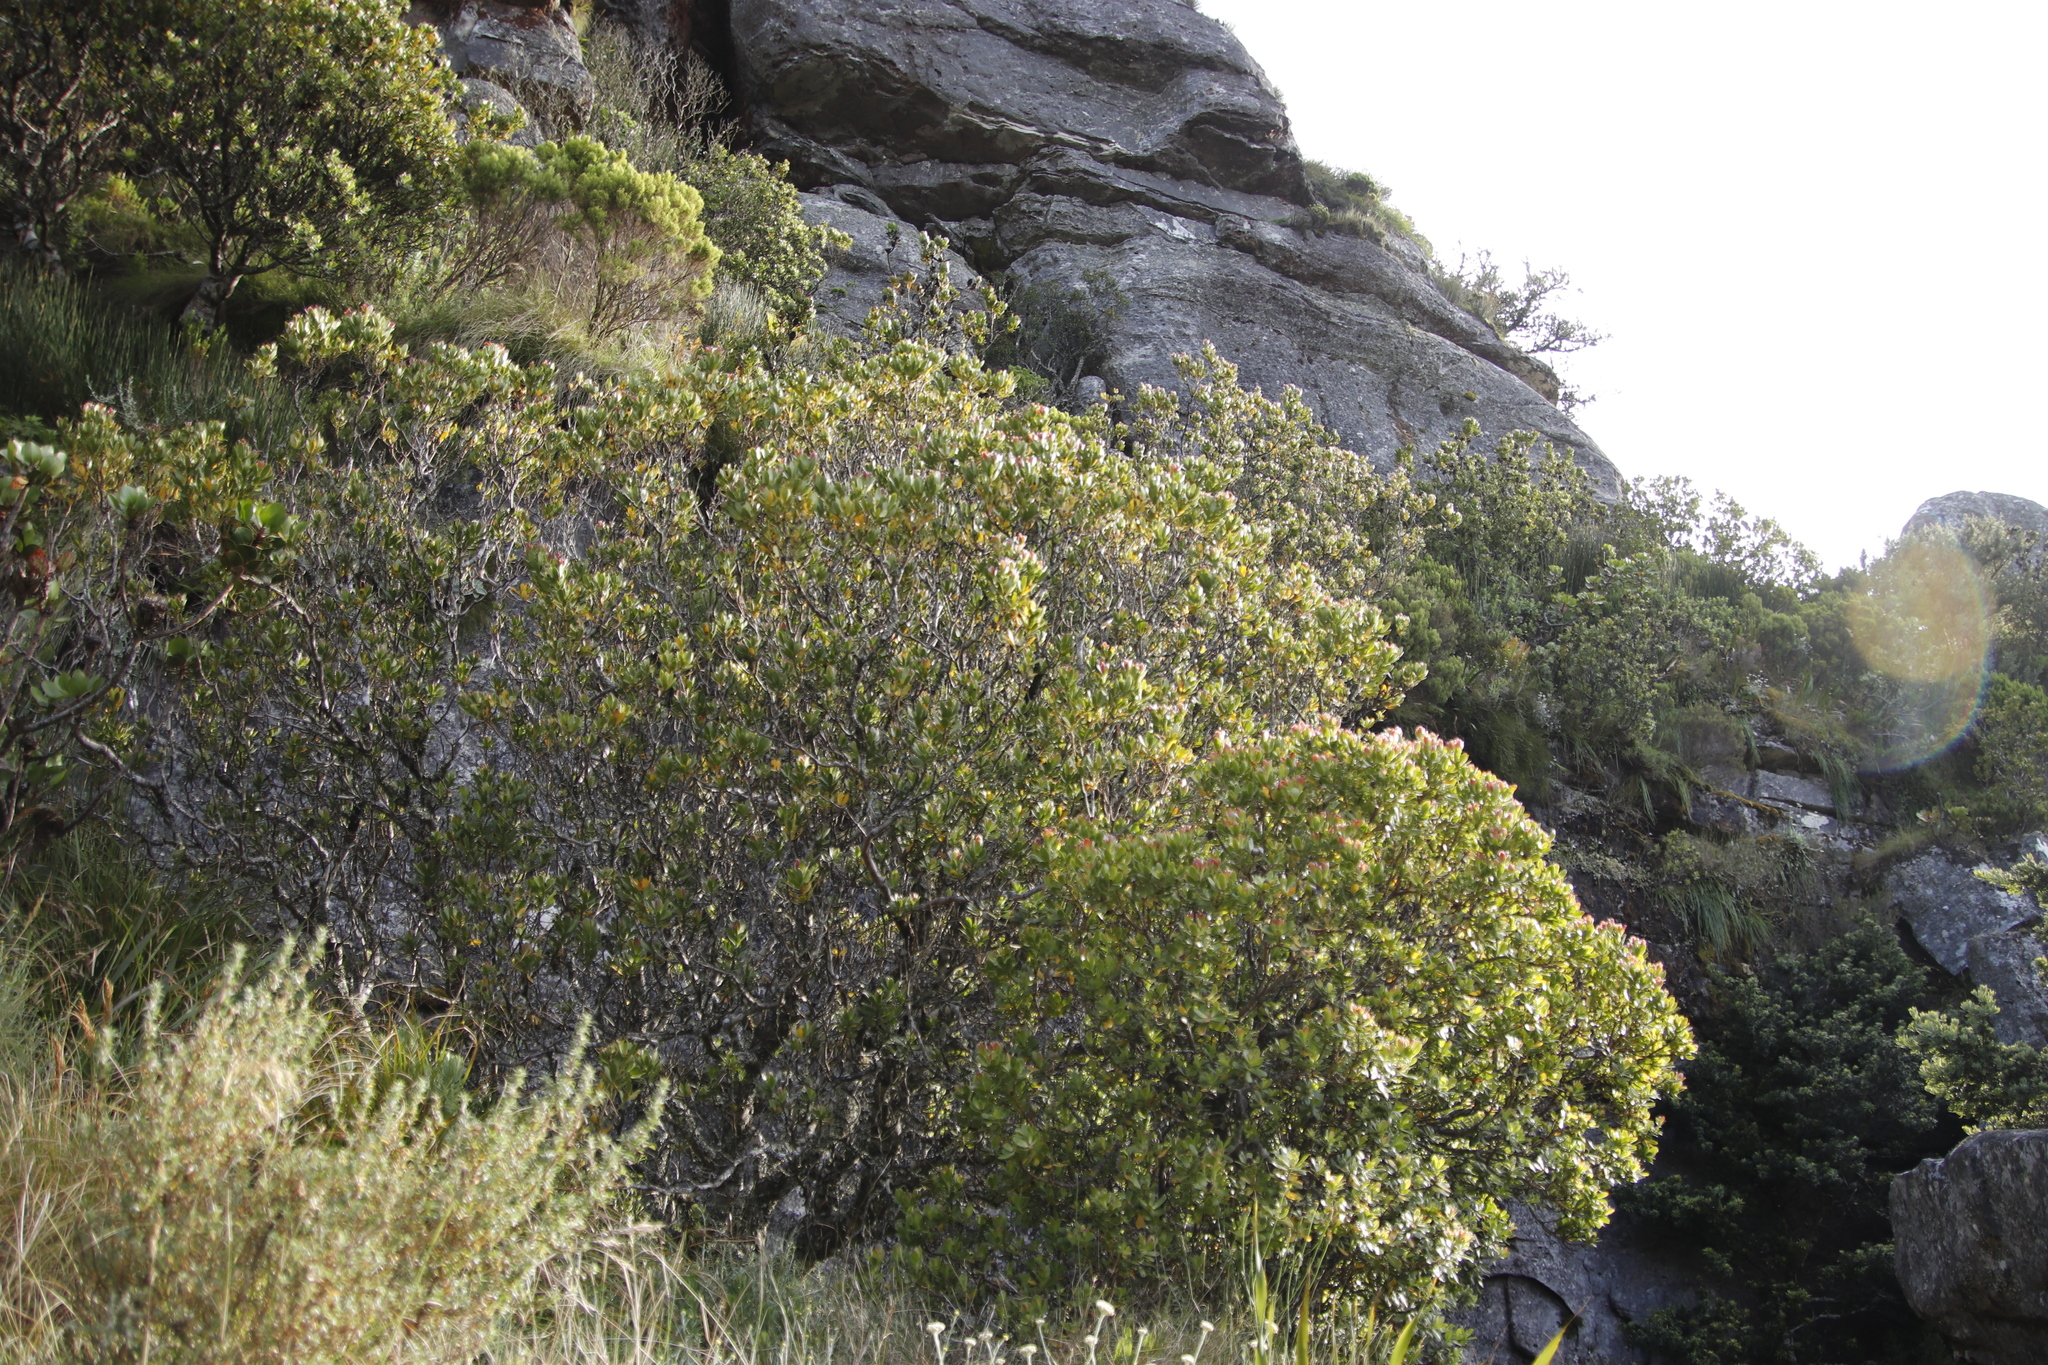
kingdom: Plantae
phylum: Tracheophyta
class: Magnoliopsida
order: Proteales
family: Proteaceae
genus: Leucadendron
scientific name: Leucadendron strobilinum
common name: Mountain rose
